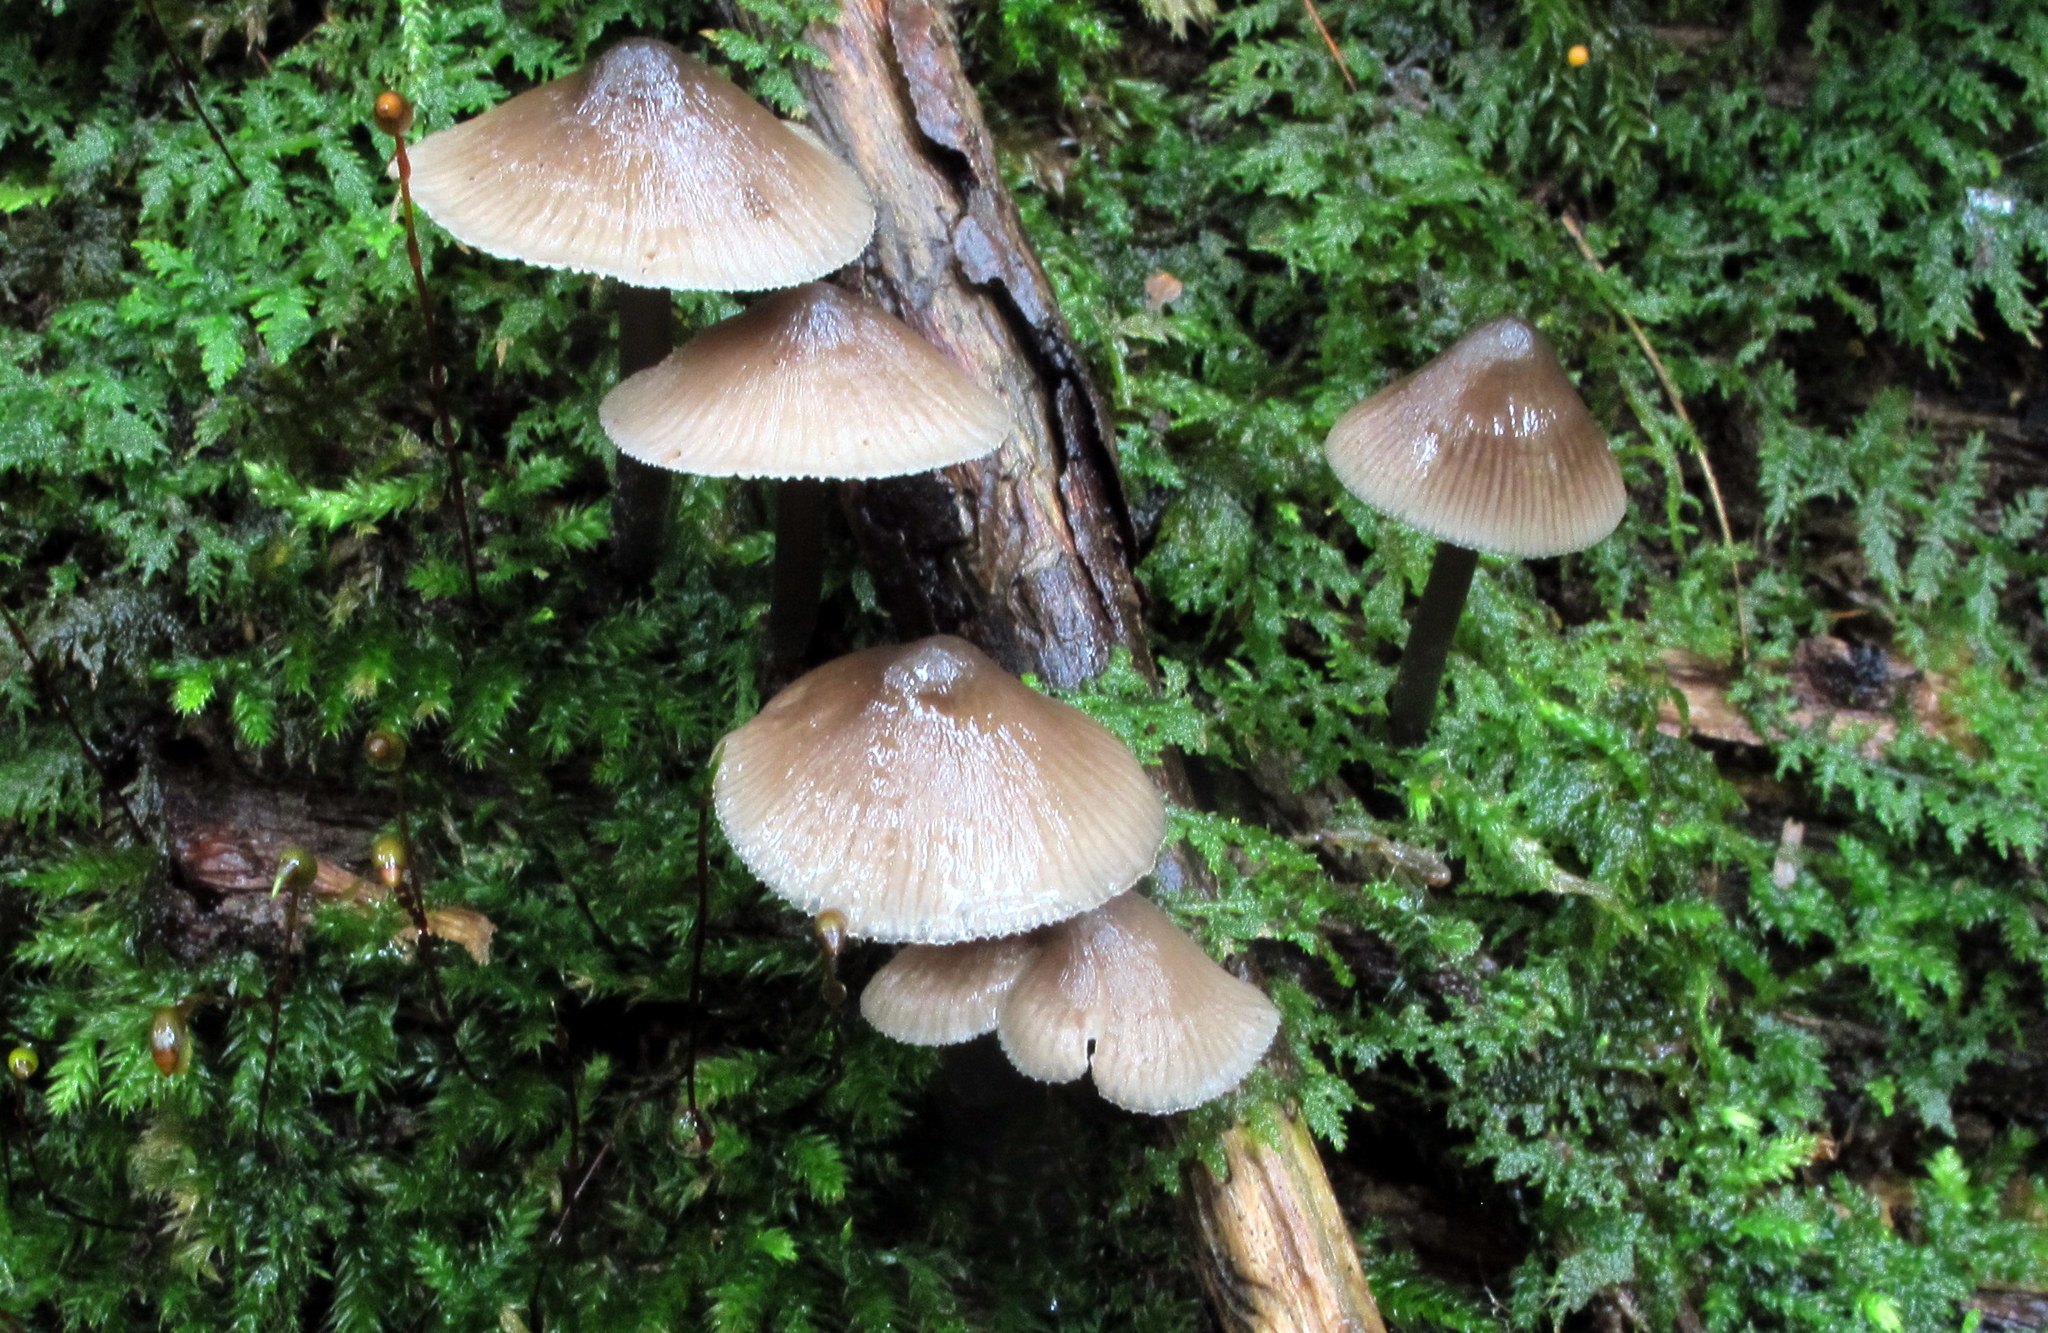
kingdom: Fungi
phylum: Basidiomycota
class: Agaricomycetes
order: Agaricales
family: Mycenaceae
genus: Mycena
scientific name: Mycena subcaerulea
